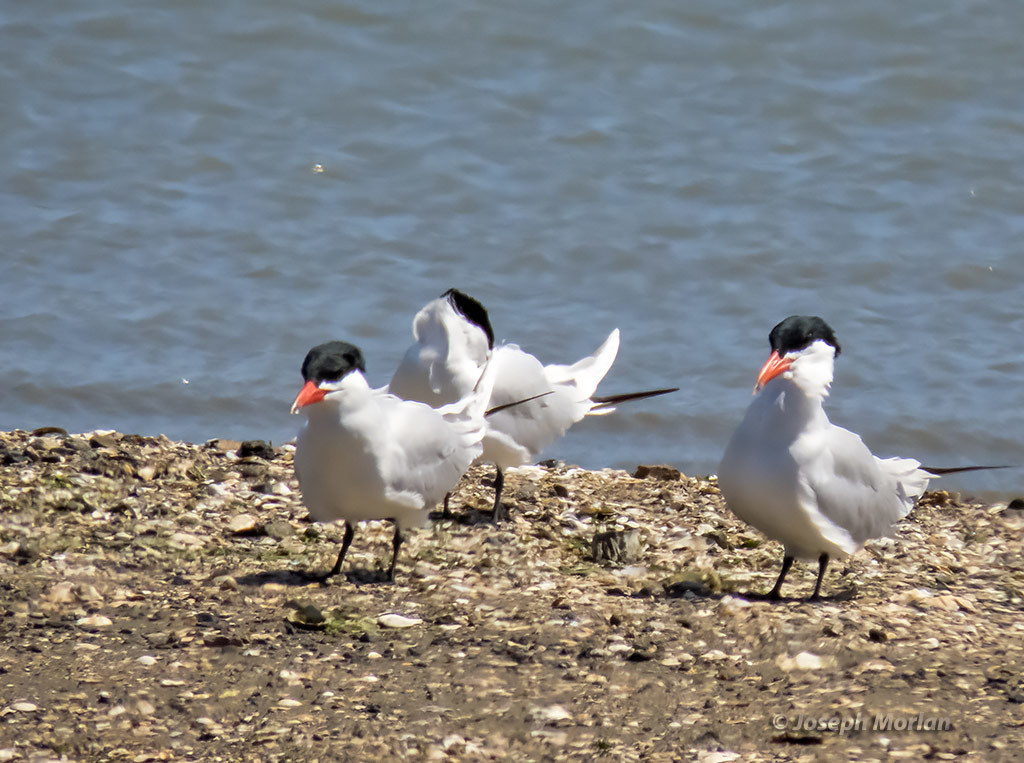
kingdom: Animalia
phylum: Chordata
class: Aves
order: Charadriiformes
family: Laridae
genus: Hydroprogne
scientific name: Hydroprogne caspia
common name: Caspian tern
